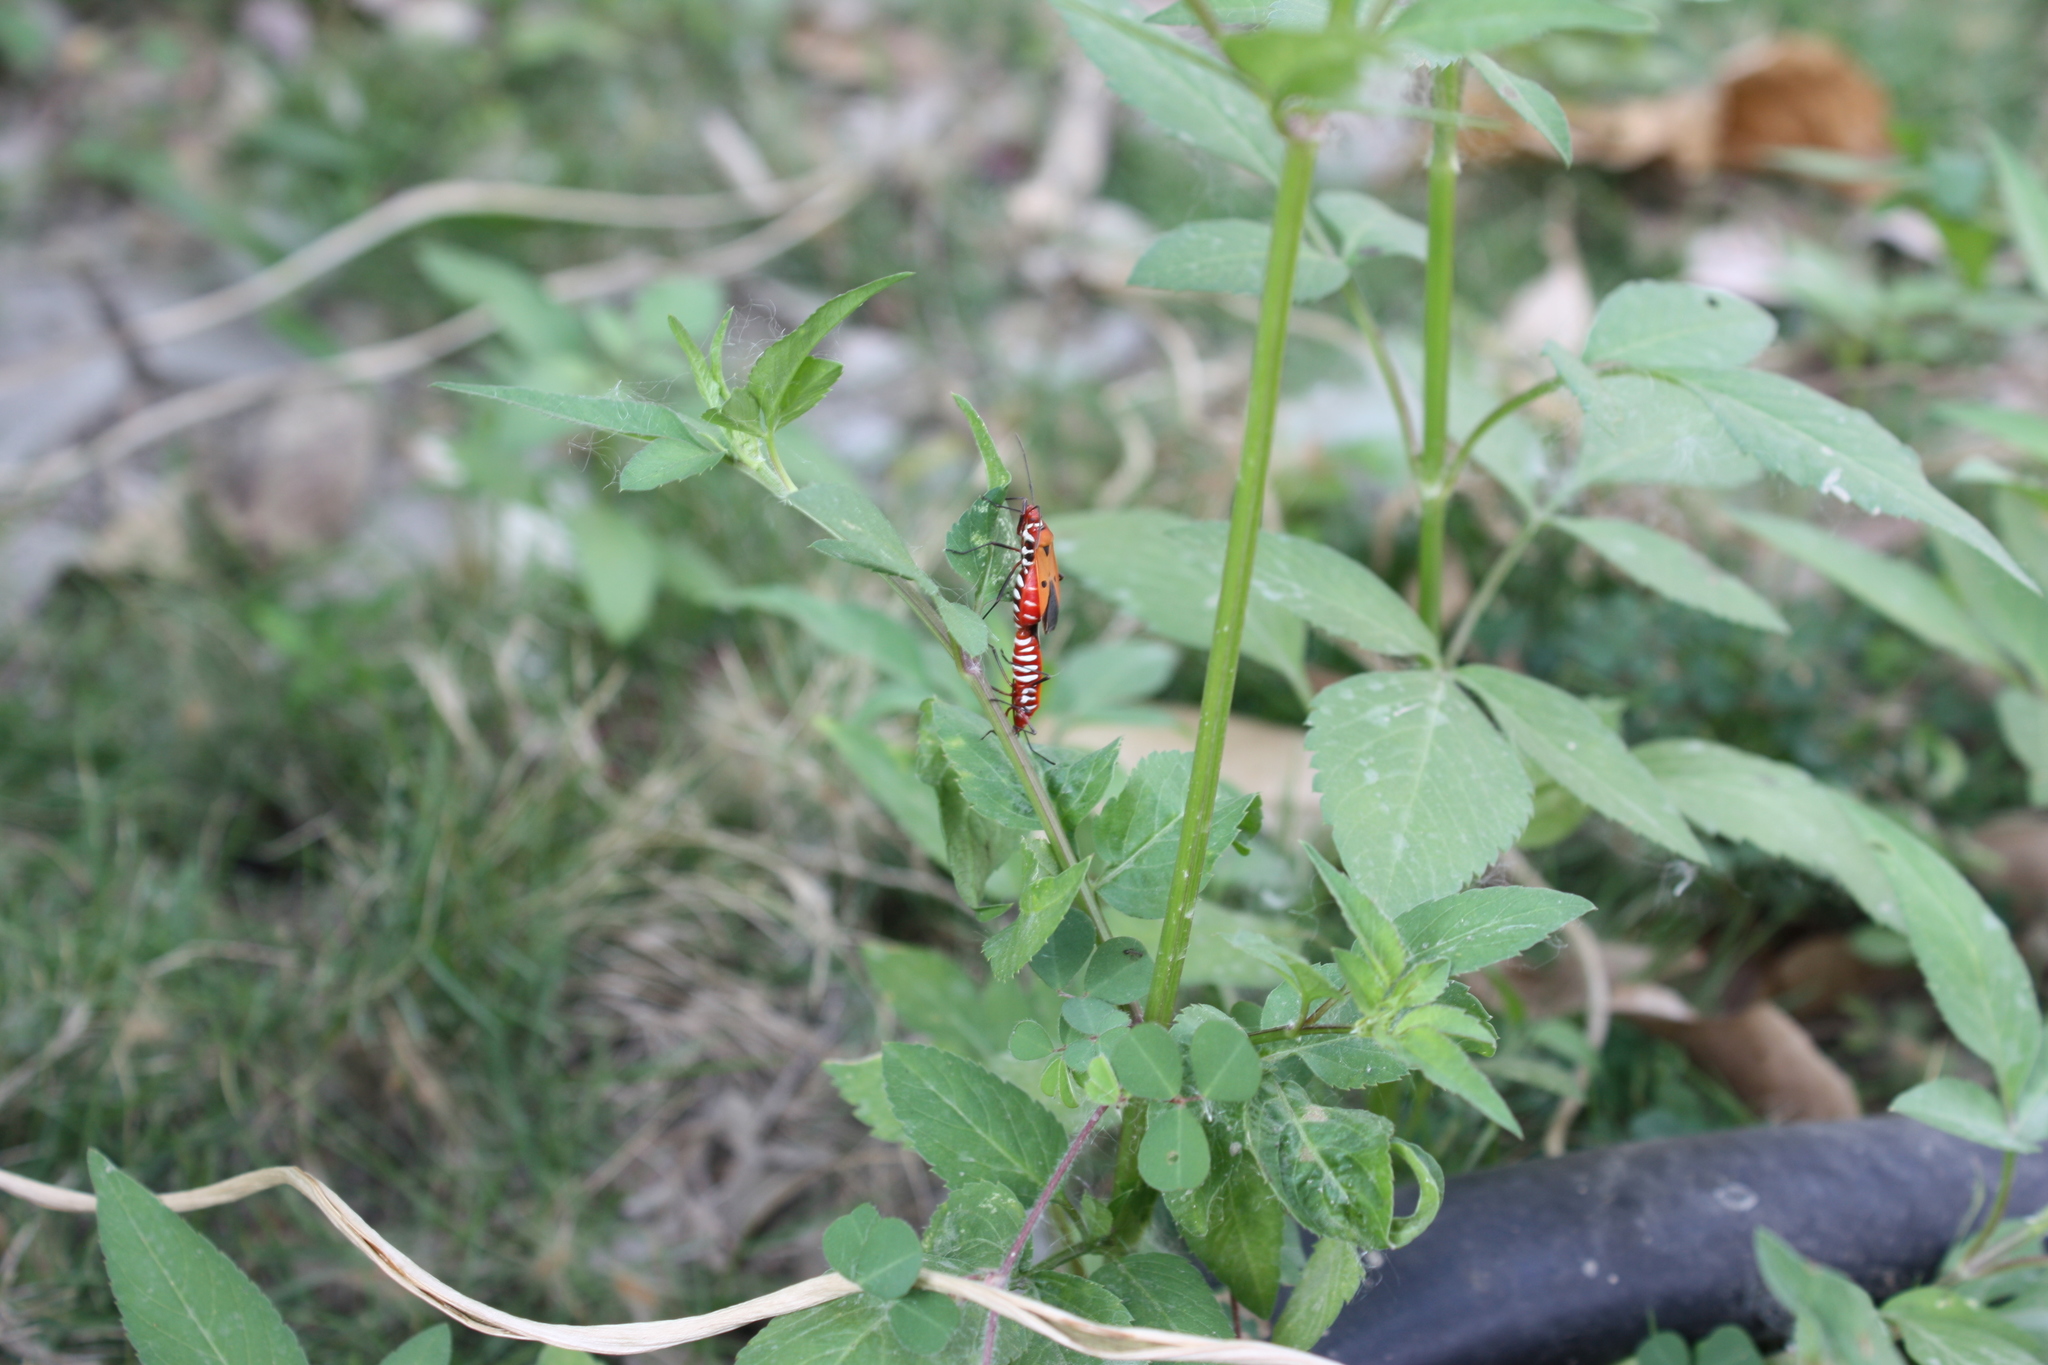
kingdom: Animalia
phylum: Arthropoda
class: Insecta
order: Hemiptera
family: Pyrrhocoridae
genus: Dysdercus
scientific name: Dysdercus cingulatus
